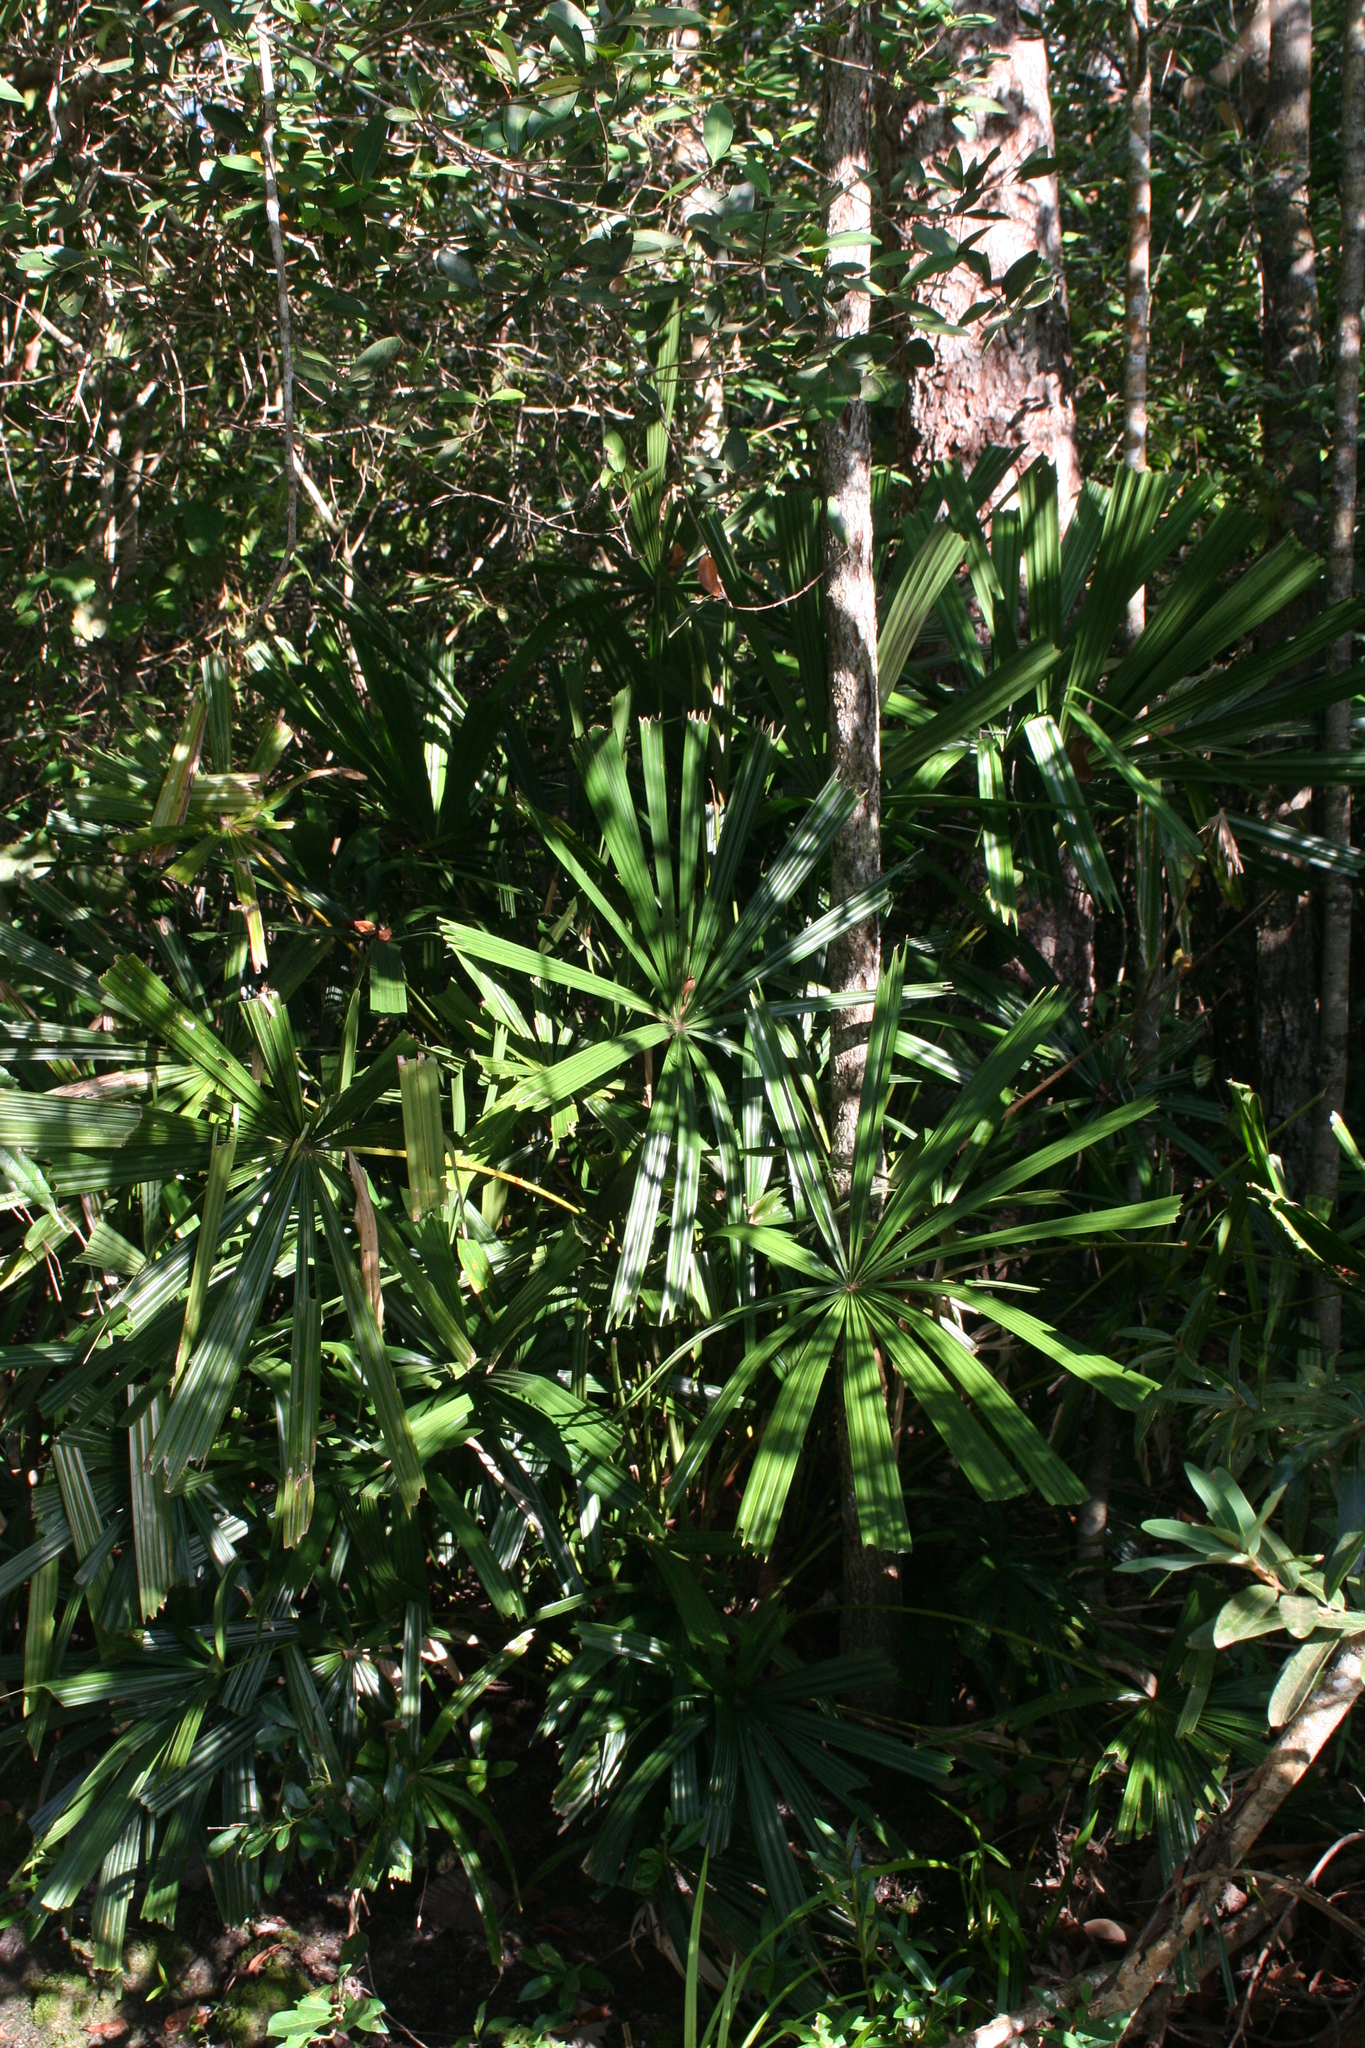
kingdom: Plantae
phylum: Tracheophyta
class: Liliopsida
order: Arecales
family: Arecaceae
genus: Licuala
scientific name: Licuala spinosa
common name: Mangrove fan palm
